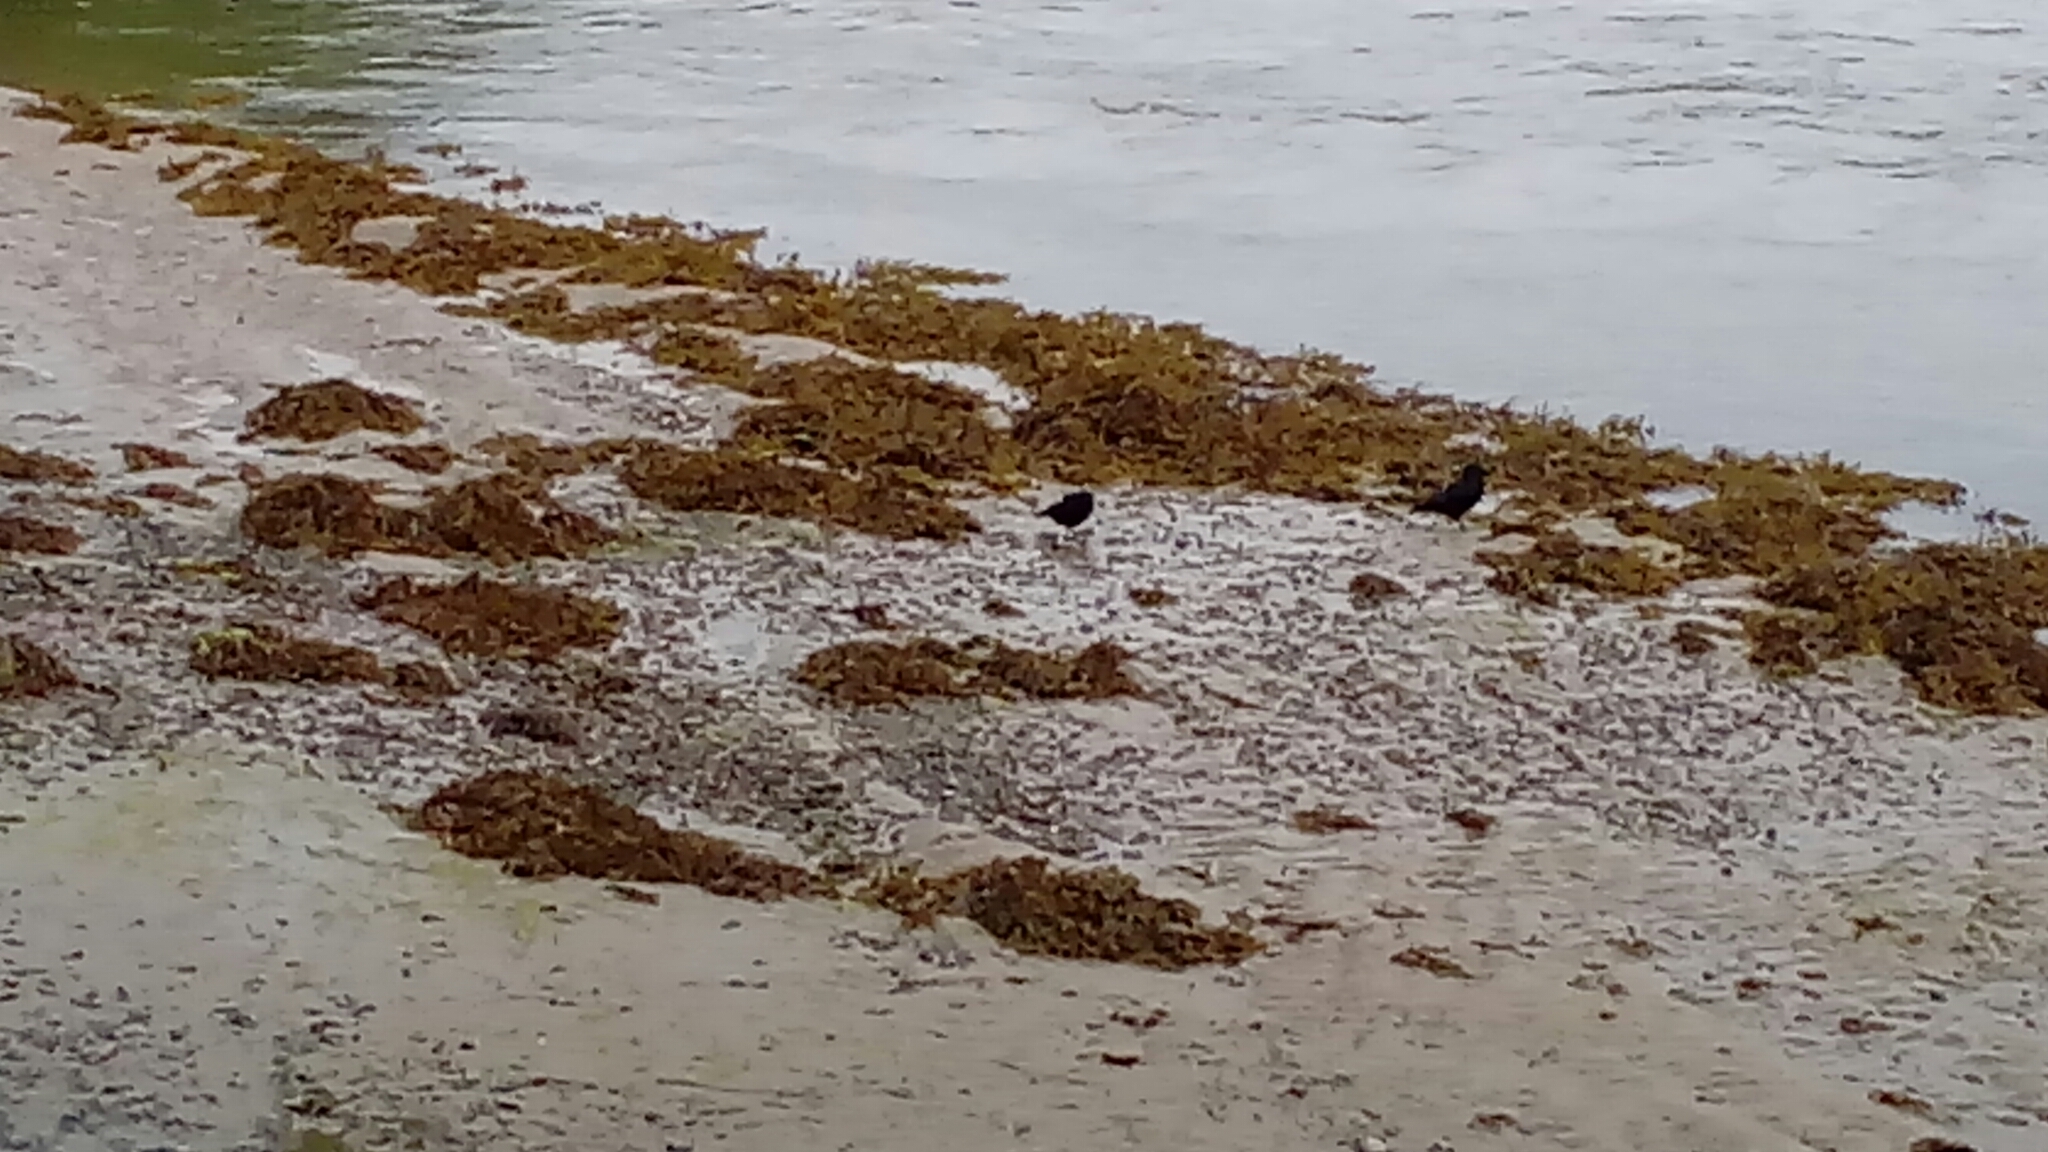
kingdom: Animalia
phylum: Chordata
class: Aves
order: Passeriformes
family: Corvidae
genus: Corvus
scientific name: Corvus
